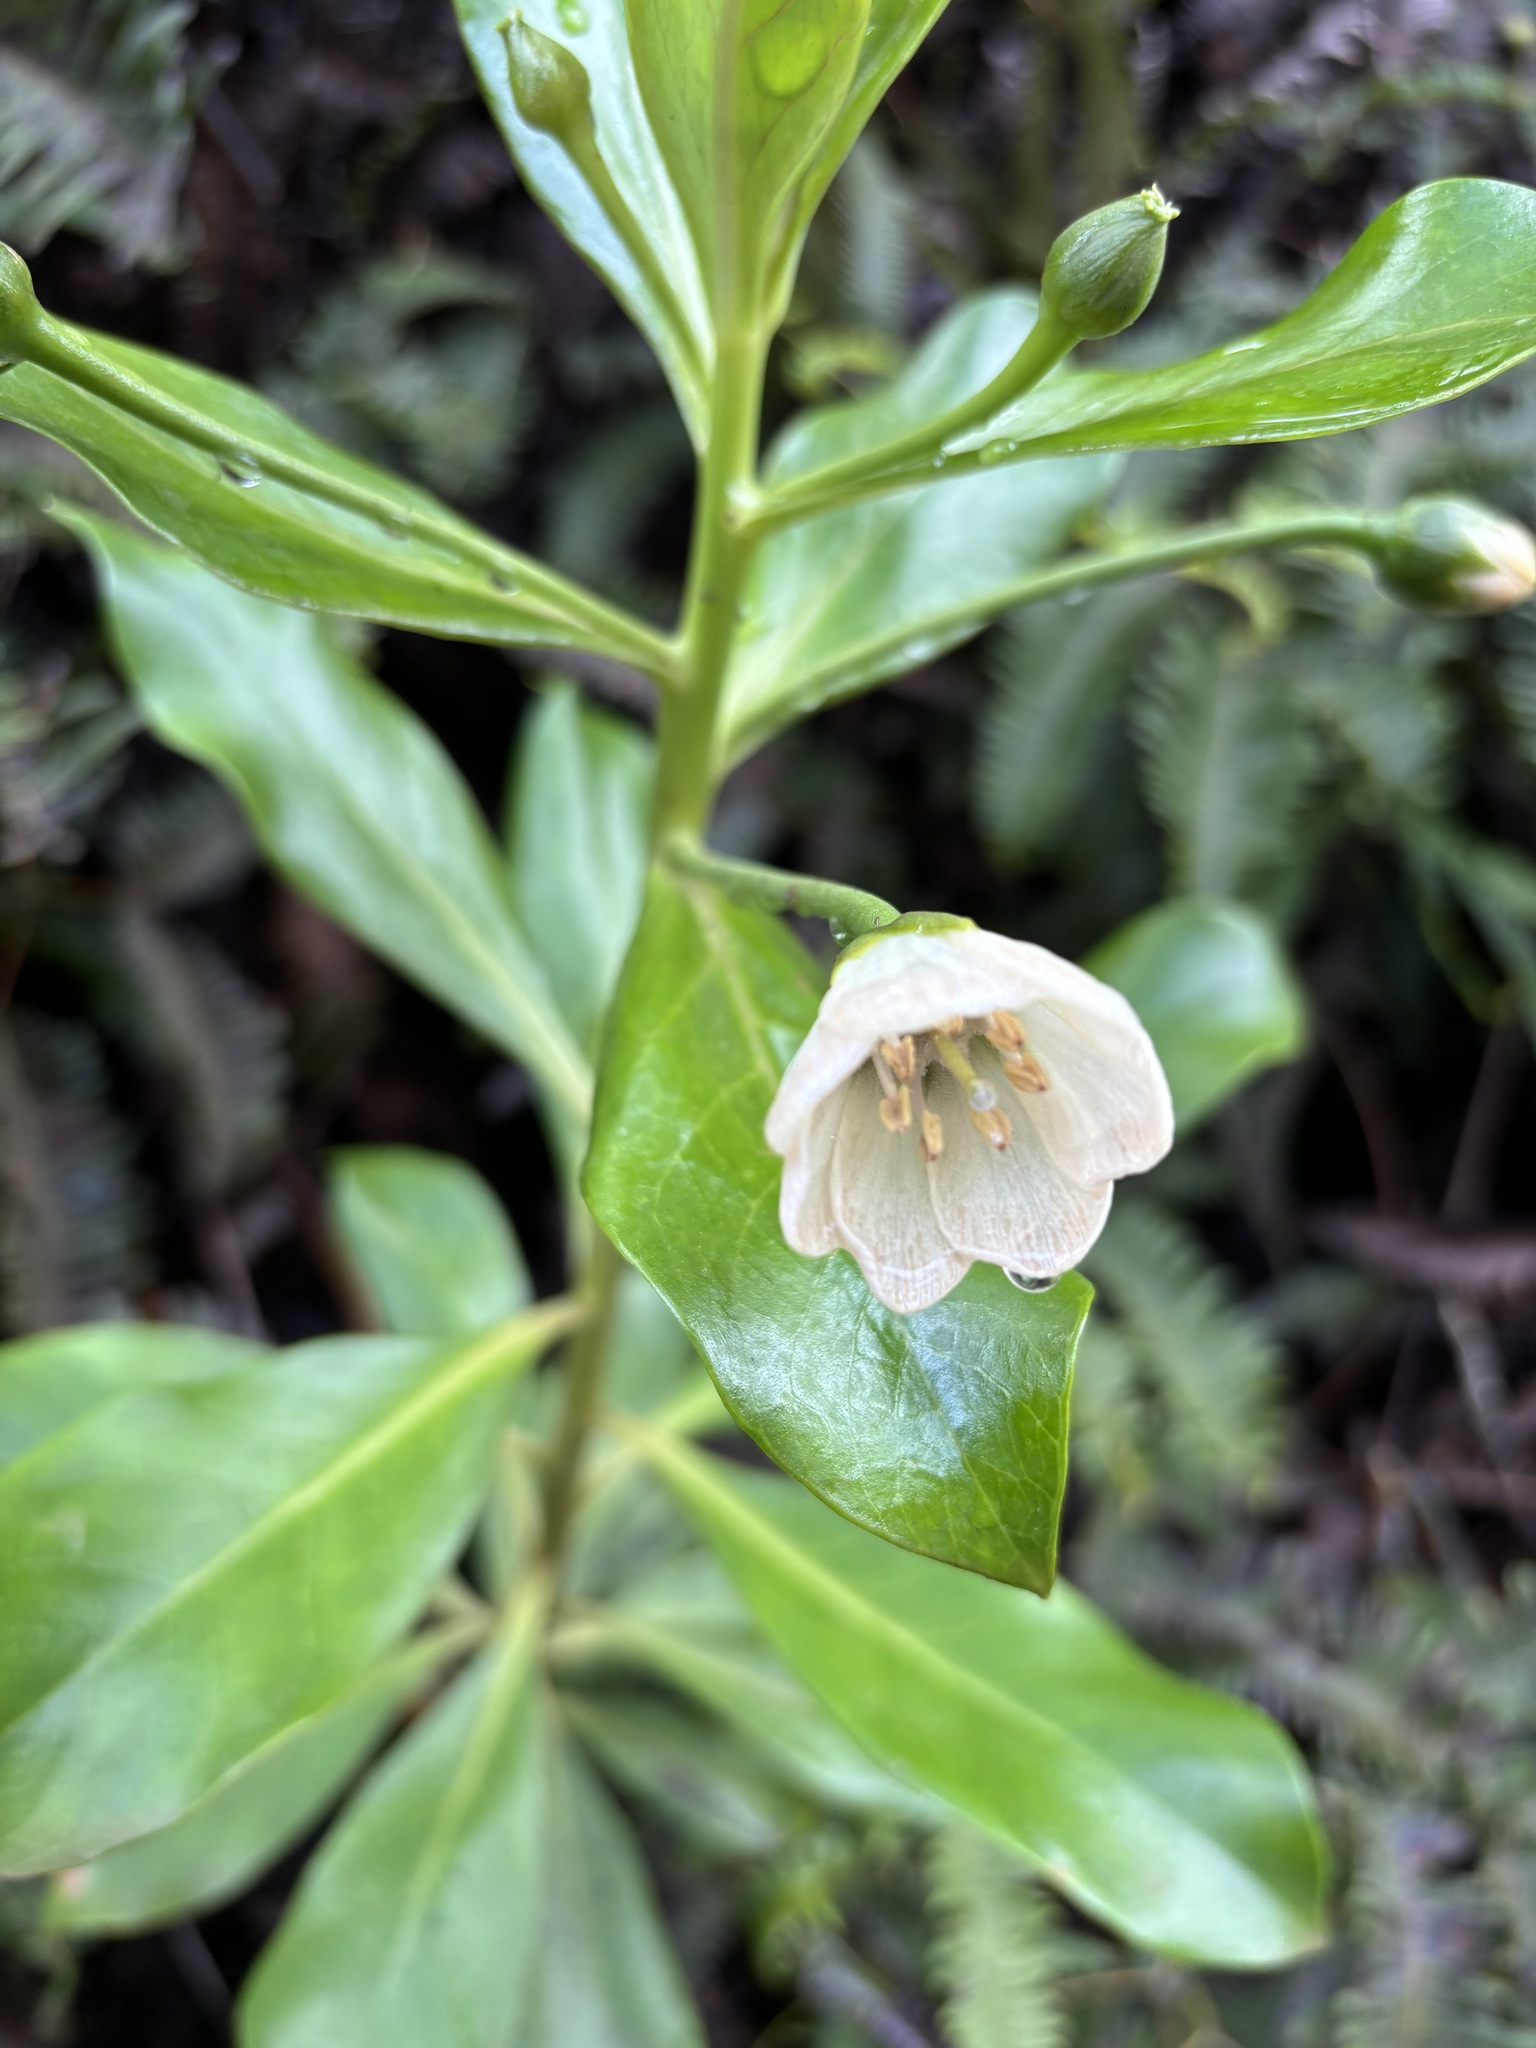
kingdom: Plantae
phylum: Tracheophyta
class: Magnoliopsida
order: Ericales
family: Primulaceae
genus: Lysimachia
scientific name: Lysimachia glutinosa
